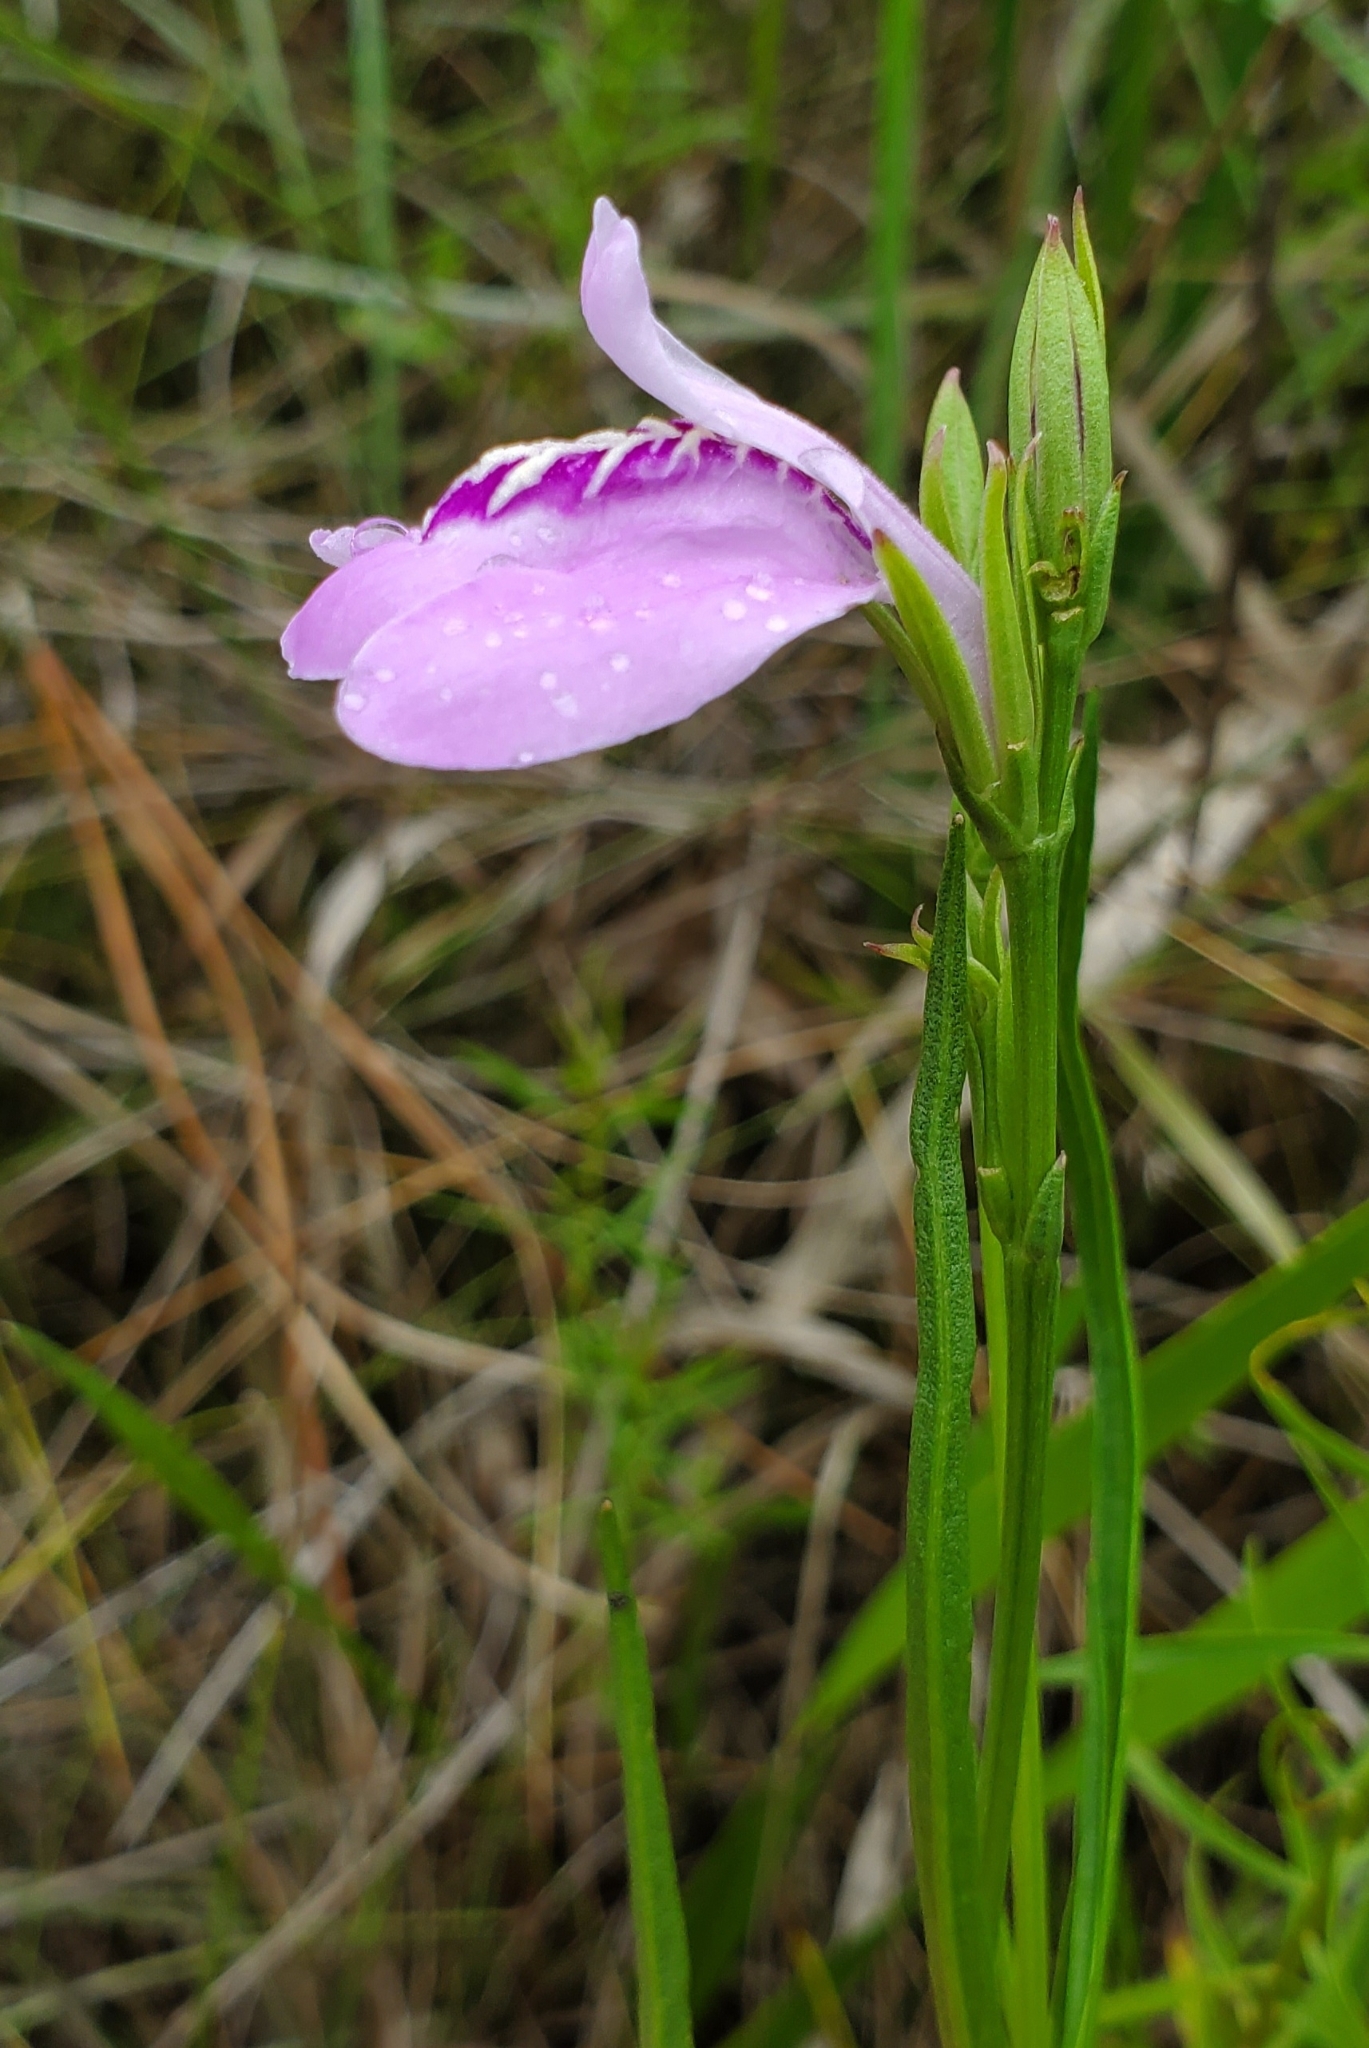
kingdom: Plantae
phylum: Tracheophyta
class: Magnoliopsida
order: Lamiales
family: Acanthaceae
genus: Dianthera
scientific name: Dianthera crassifolia
